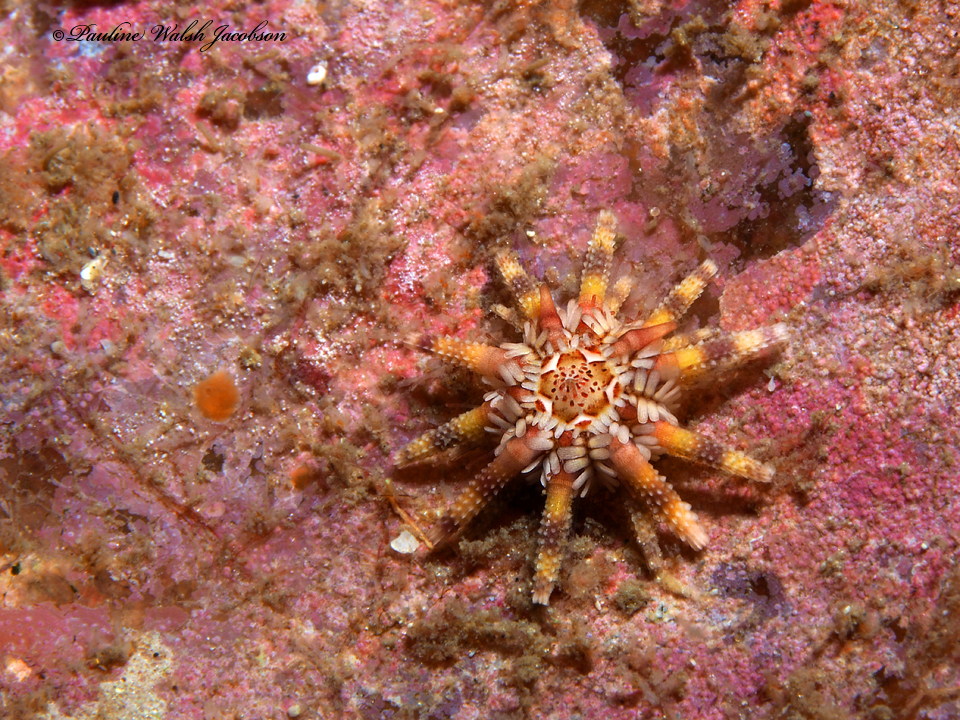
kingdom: Animalia
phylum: Echinodermata
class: Echinoidea
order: Cidaroida
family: Cidaridae
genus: Eucidaris
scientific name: Eucidaris tribuloides
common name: Slate pencil urchin
